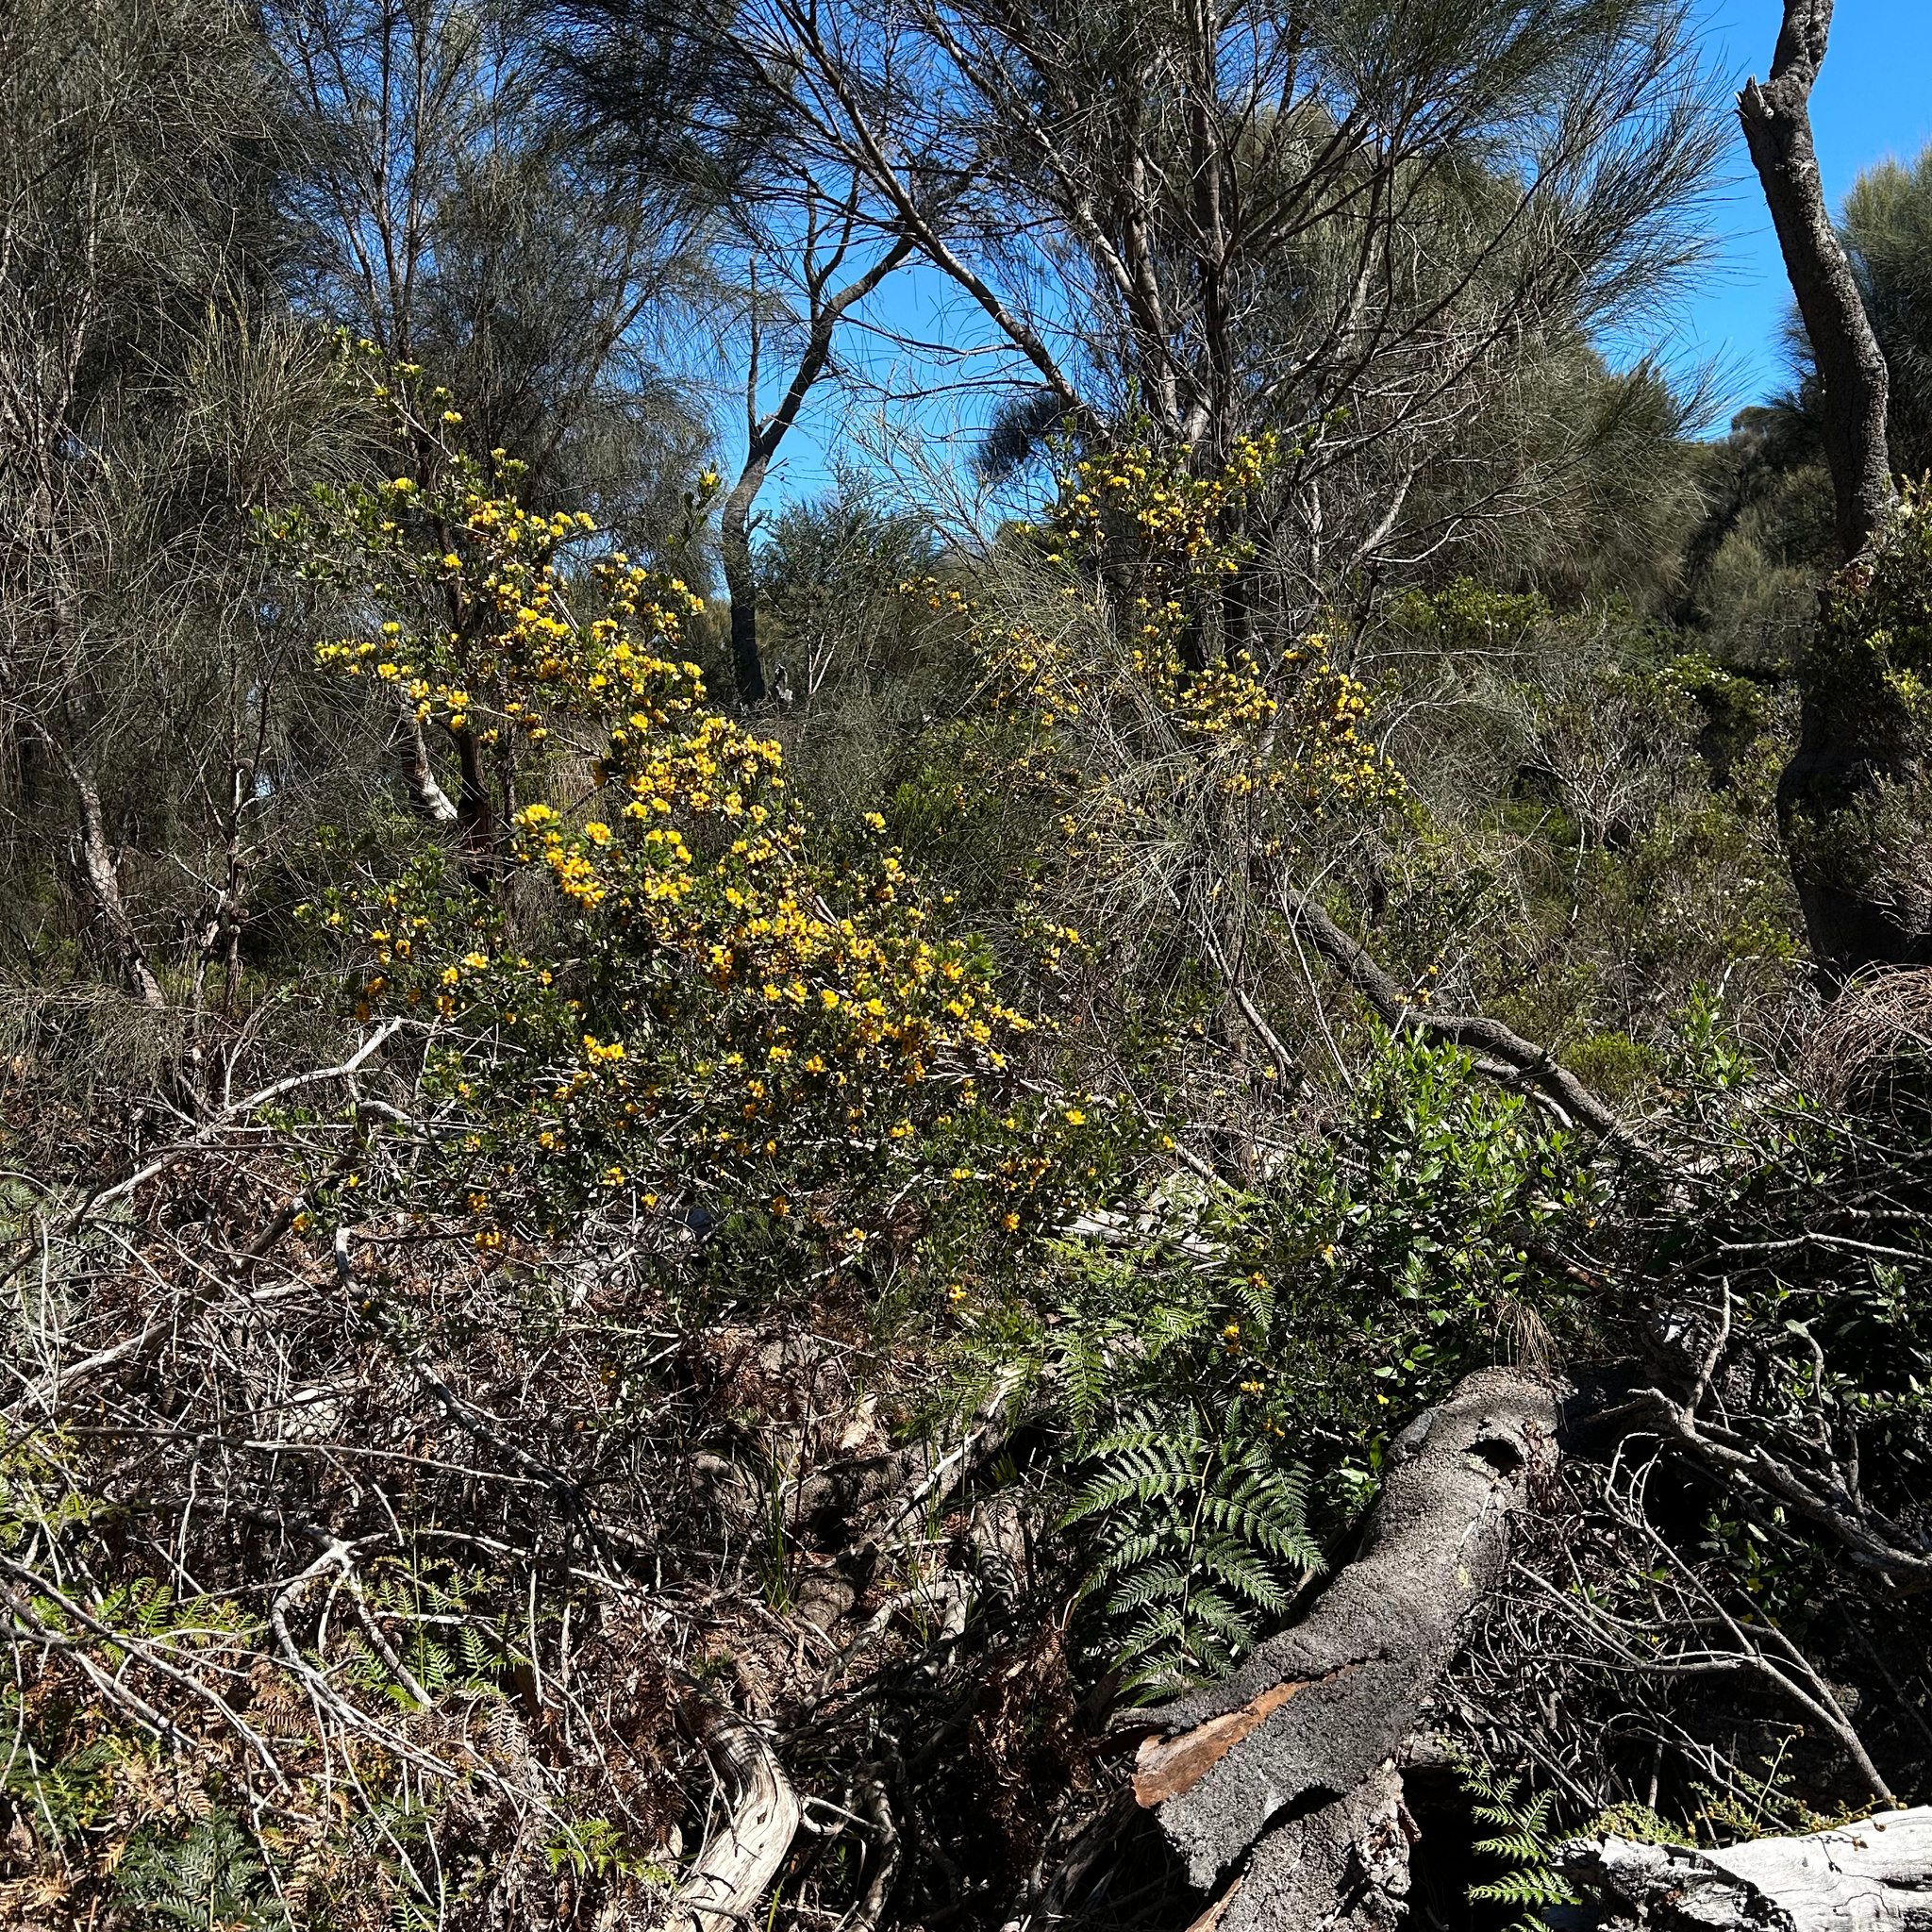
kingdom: Plantae
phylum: Tracheophyta
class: Magnoliopsida
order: Fabales
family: Fabaceae
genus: Pultenaea
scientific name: Pultenaea daphnoides
